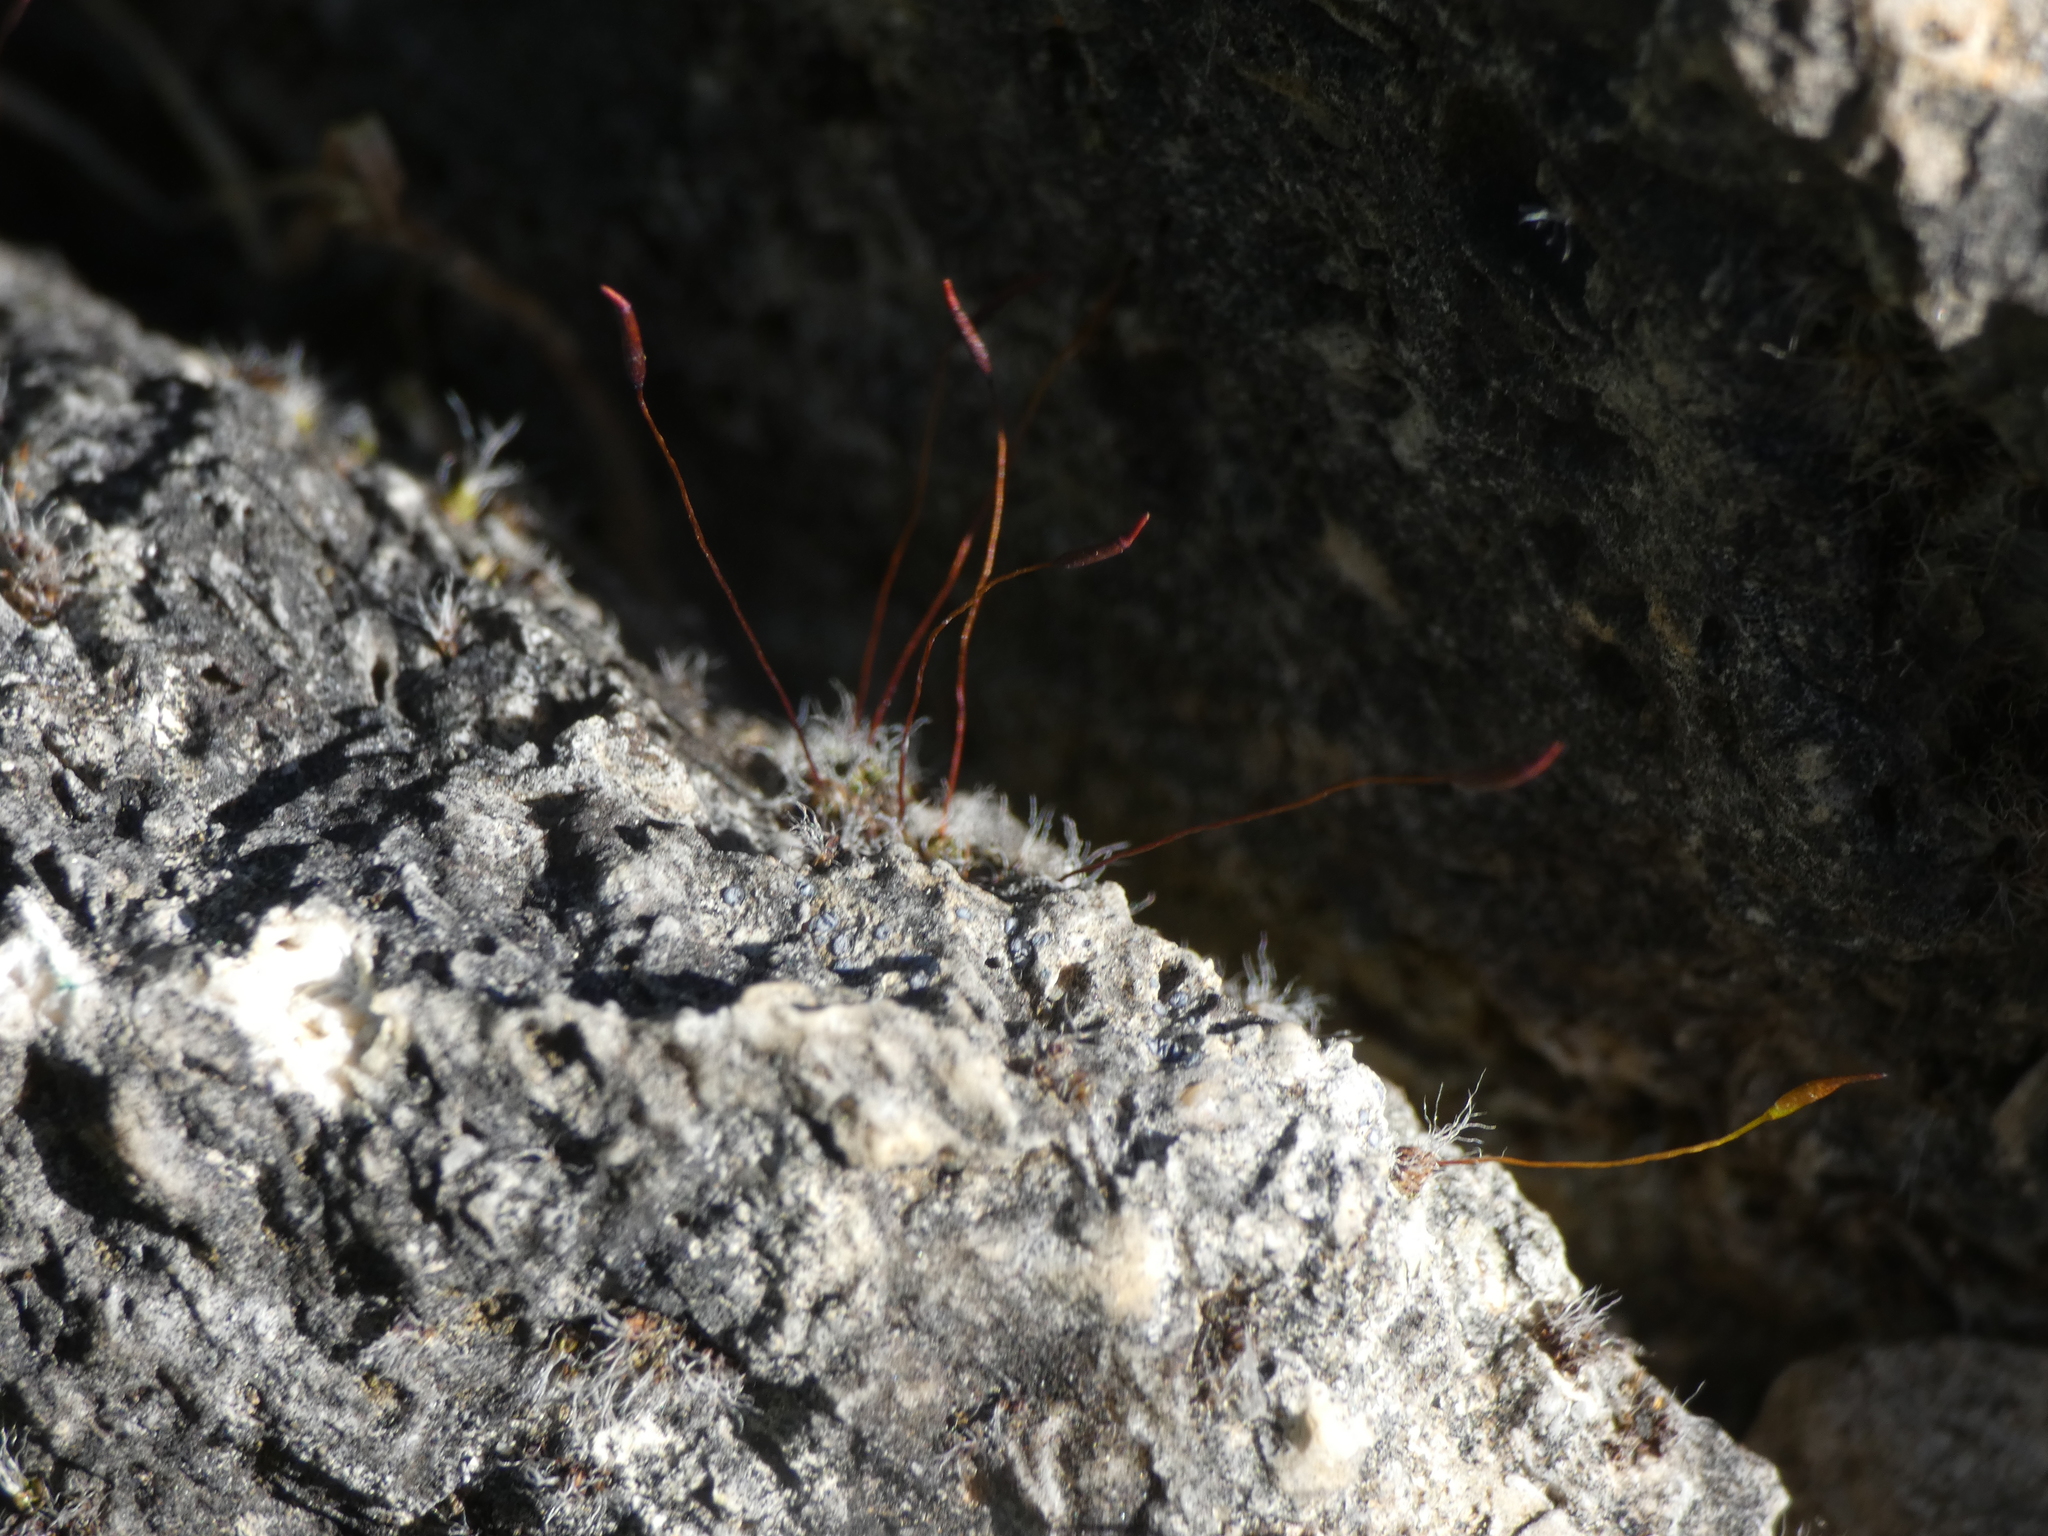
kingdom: Plantae
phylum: Bryophyta
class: Bryopsida
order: Pottiales
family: Pottiaceae
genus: Tortula
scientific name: Tortula muralis
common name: Wall screw-moss
